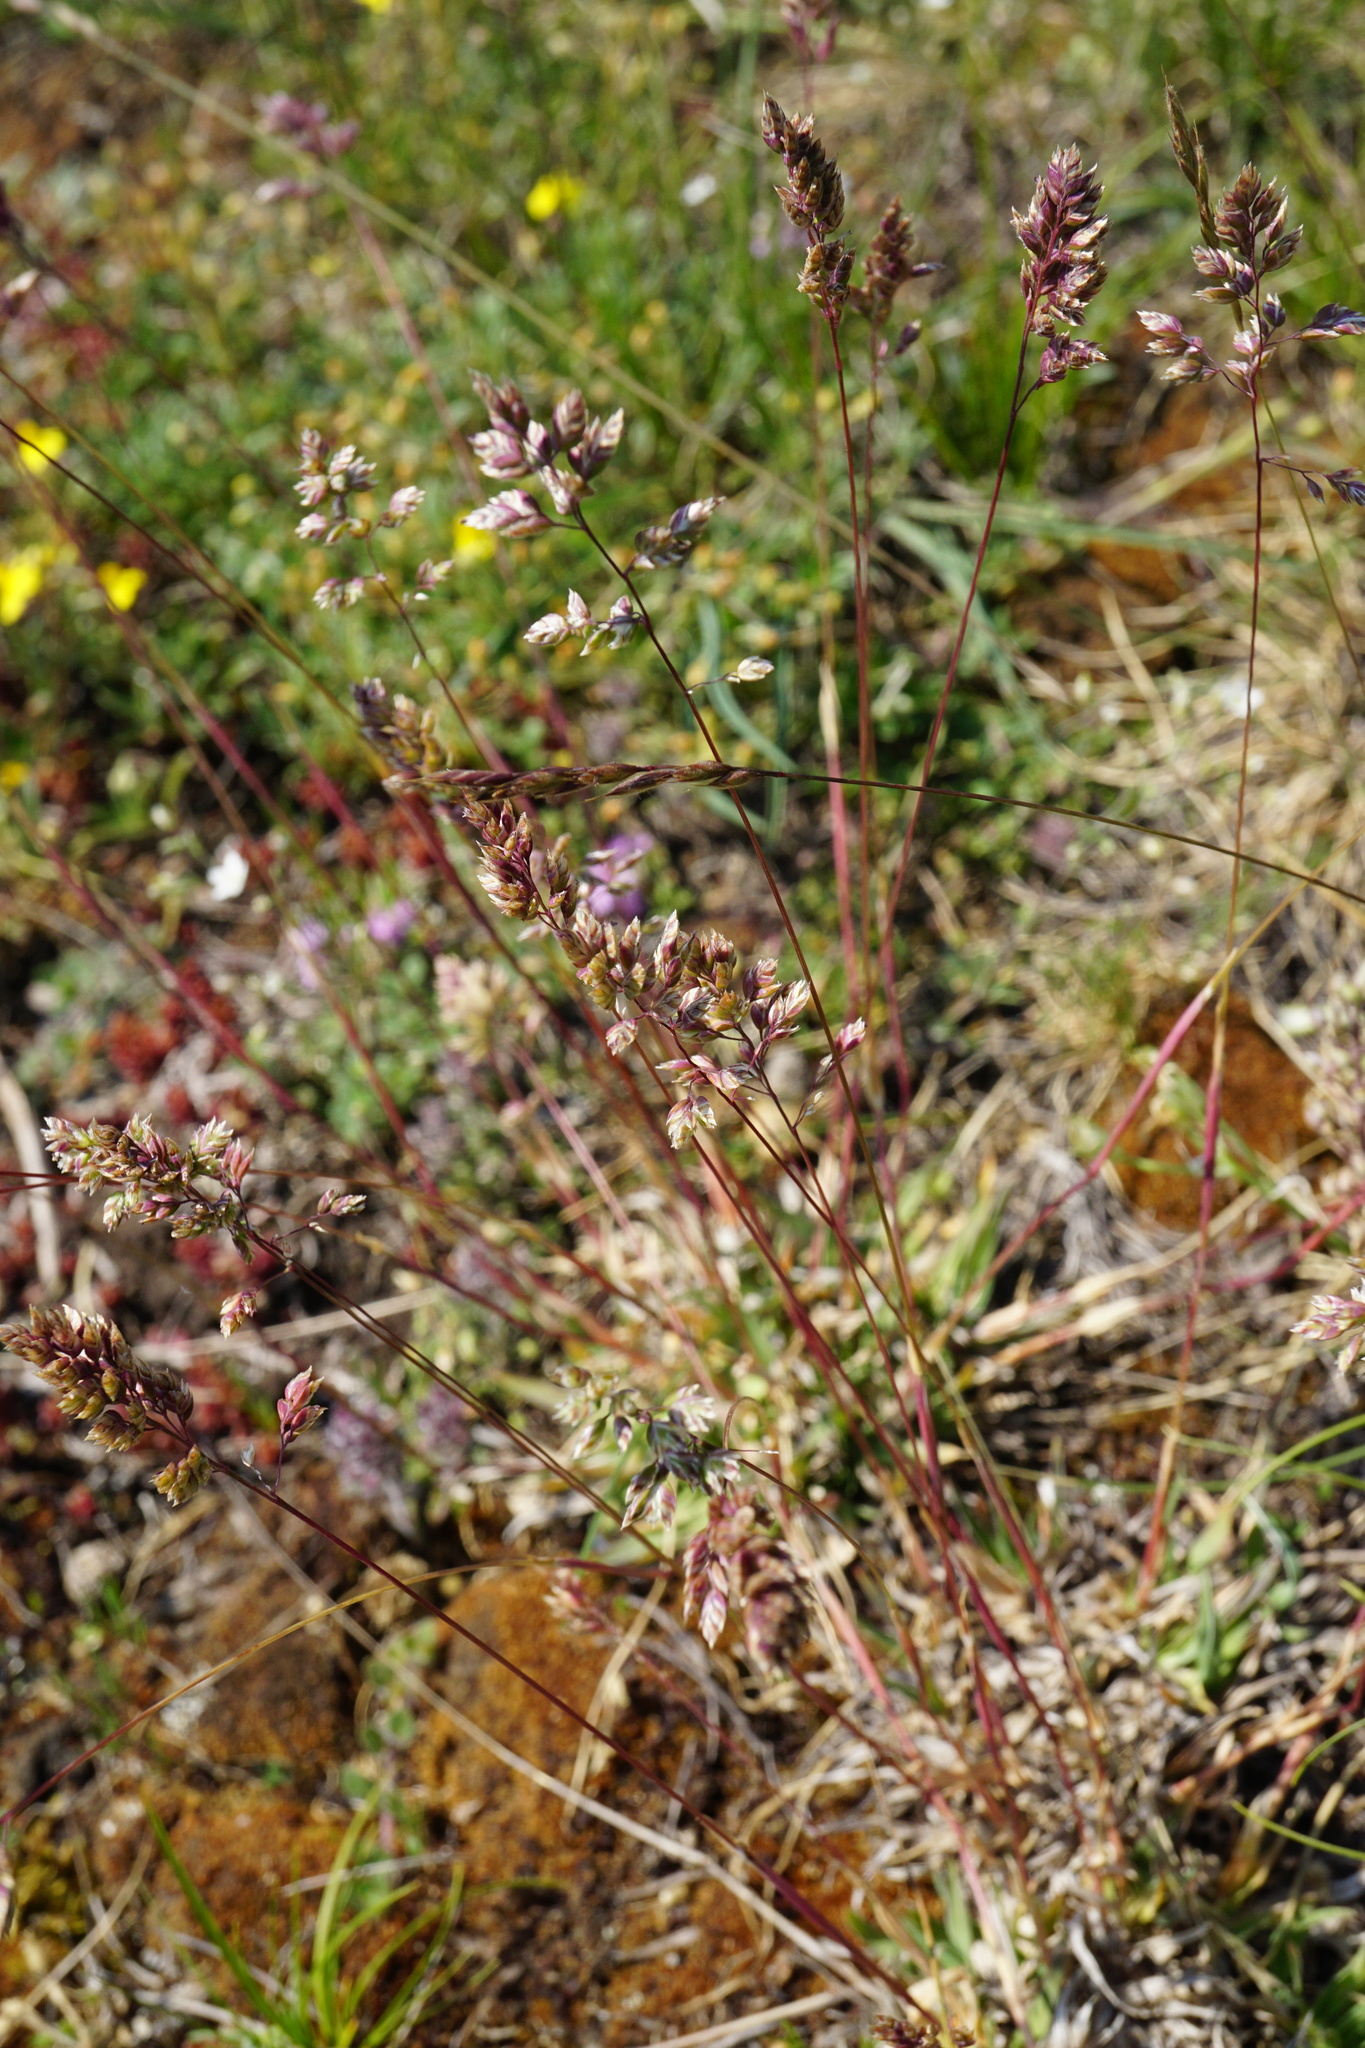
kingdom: Plantae
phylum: Tracheophyta
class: Liliopsida
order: Poales
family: Poaceae
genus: Poa
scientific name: Poa badensis
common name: Baden's bluegrass
